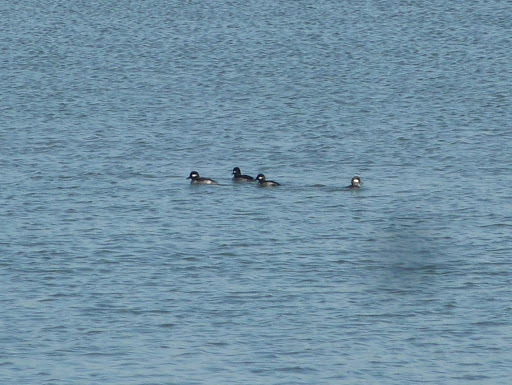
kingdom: Animalia
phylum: Chordata
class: Aves
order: Anseriformes
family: Anatidae
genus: Bucephala
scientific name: Bucephala albeola
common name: Bufflehead
